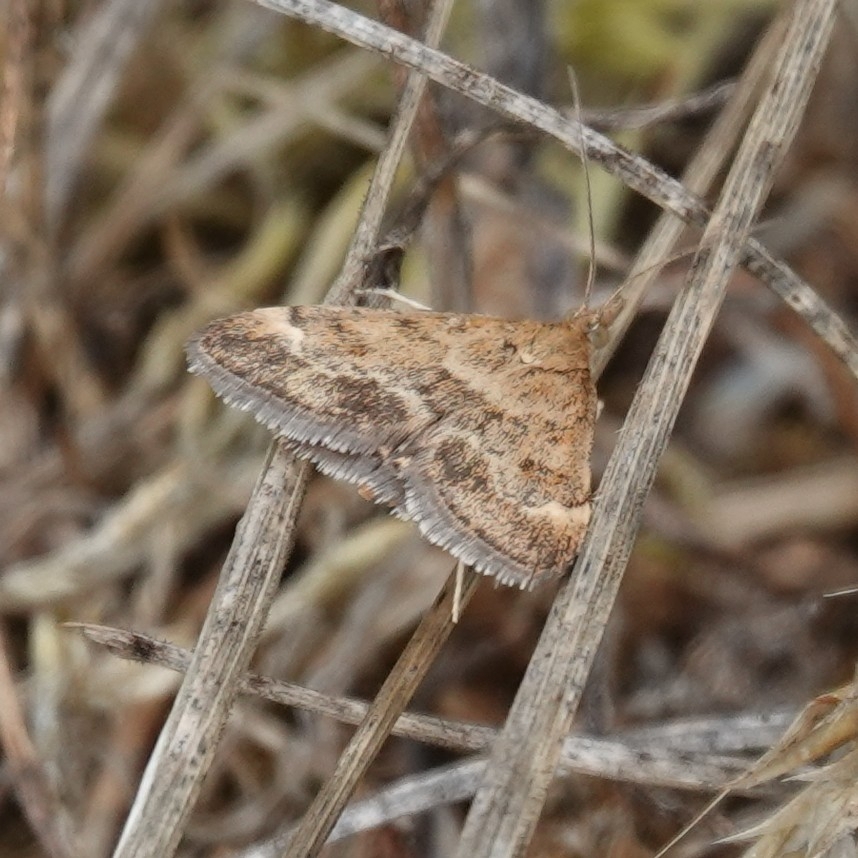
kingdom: Animalia
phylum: Arthropoda
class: Insecta
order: Lepidoptera
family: Crambidae
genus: Pyrausta
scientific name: Pyrausta despicata
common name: Straw-barred pearl
